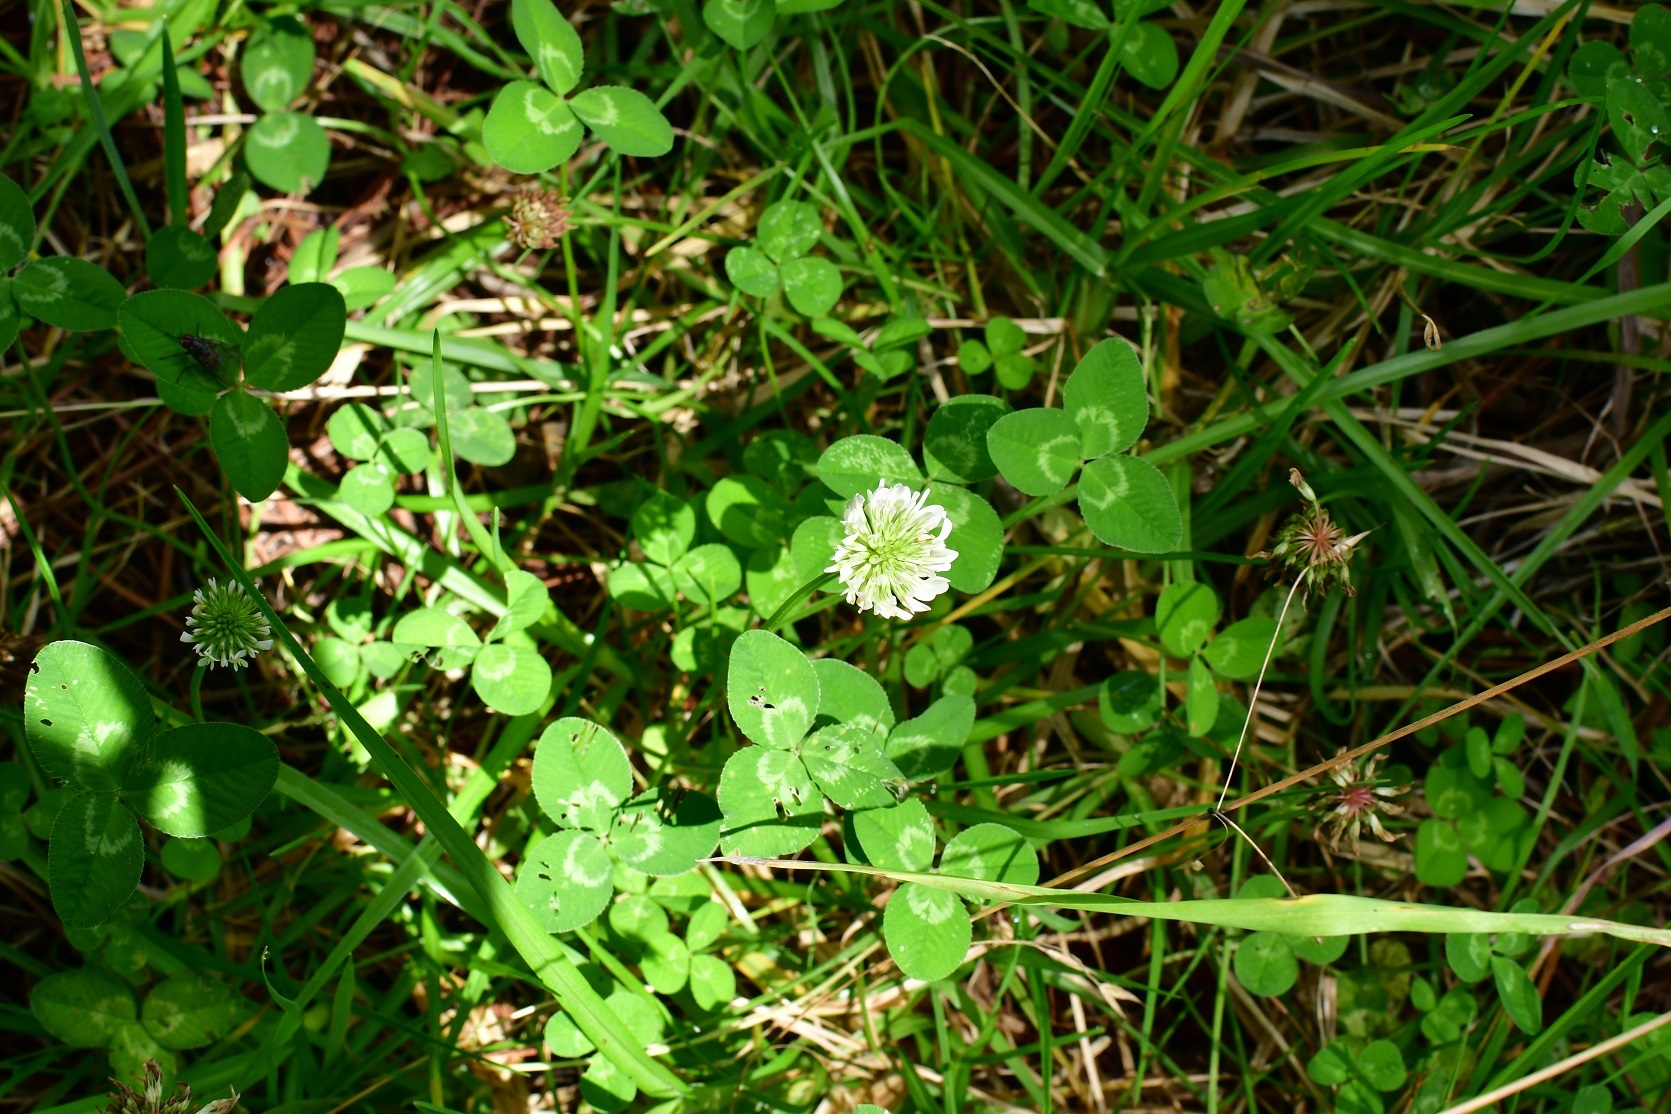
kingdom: Plantae
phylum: Tracheophyta
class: Magnoliopsida
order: Fabales
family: Fabaceae
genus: Trifolium
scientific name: Trifolium repens
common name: White clover
